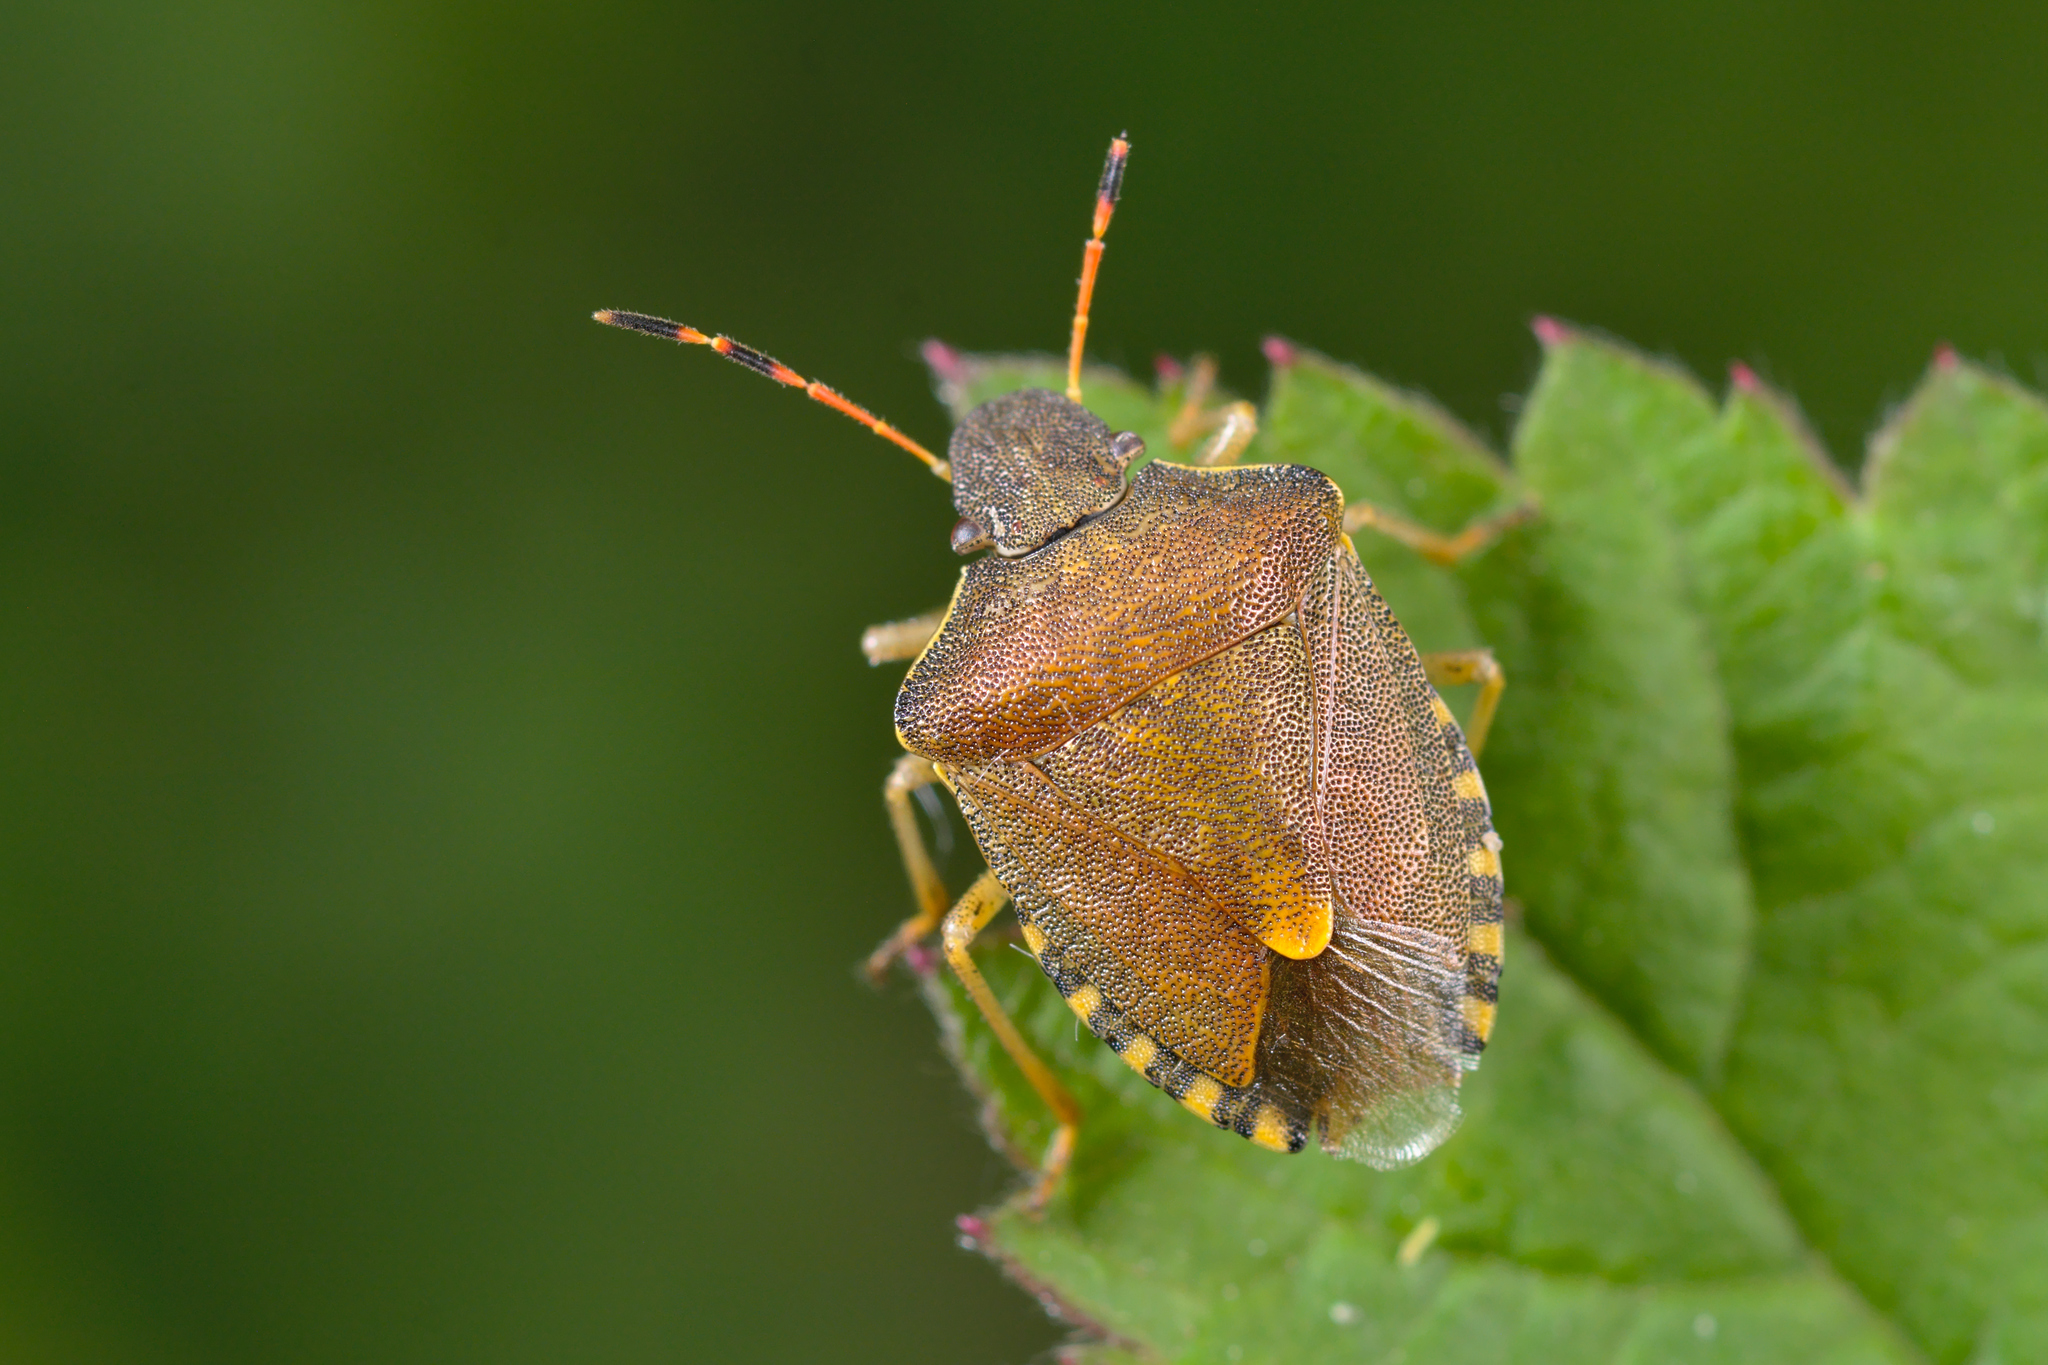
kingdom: Animalia
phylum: Arthropoda
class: Insecta
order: Hemiptera
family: Pentatomidae
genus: Holcostethus
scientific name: Holcostethus strictus
